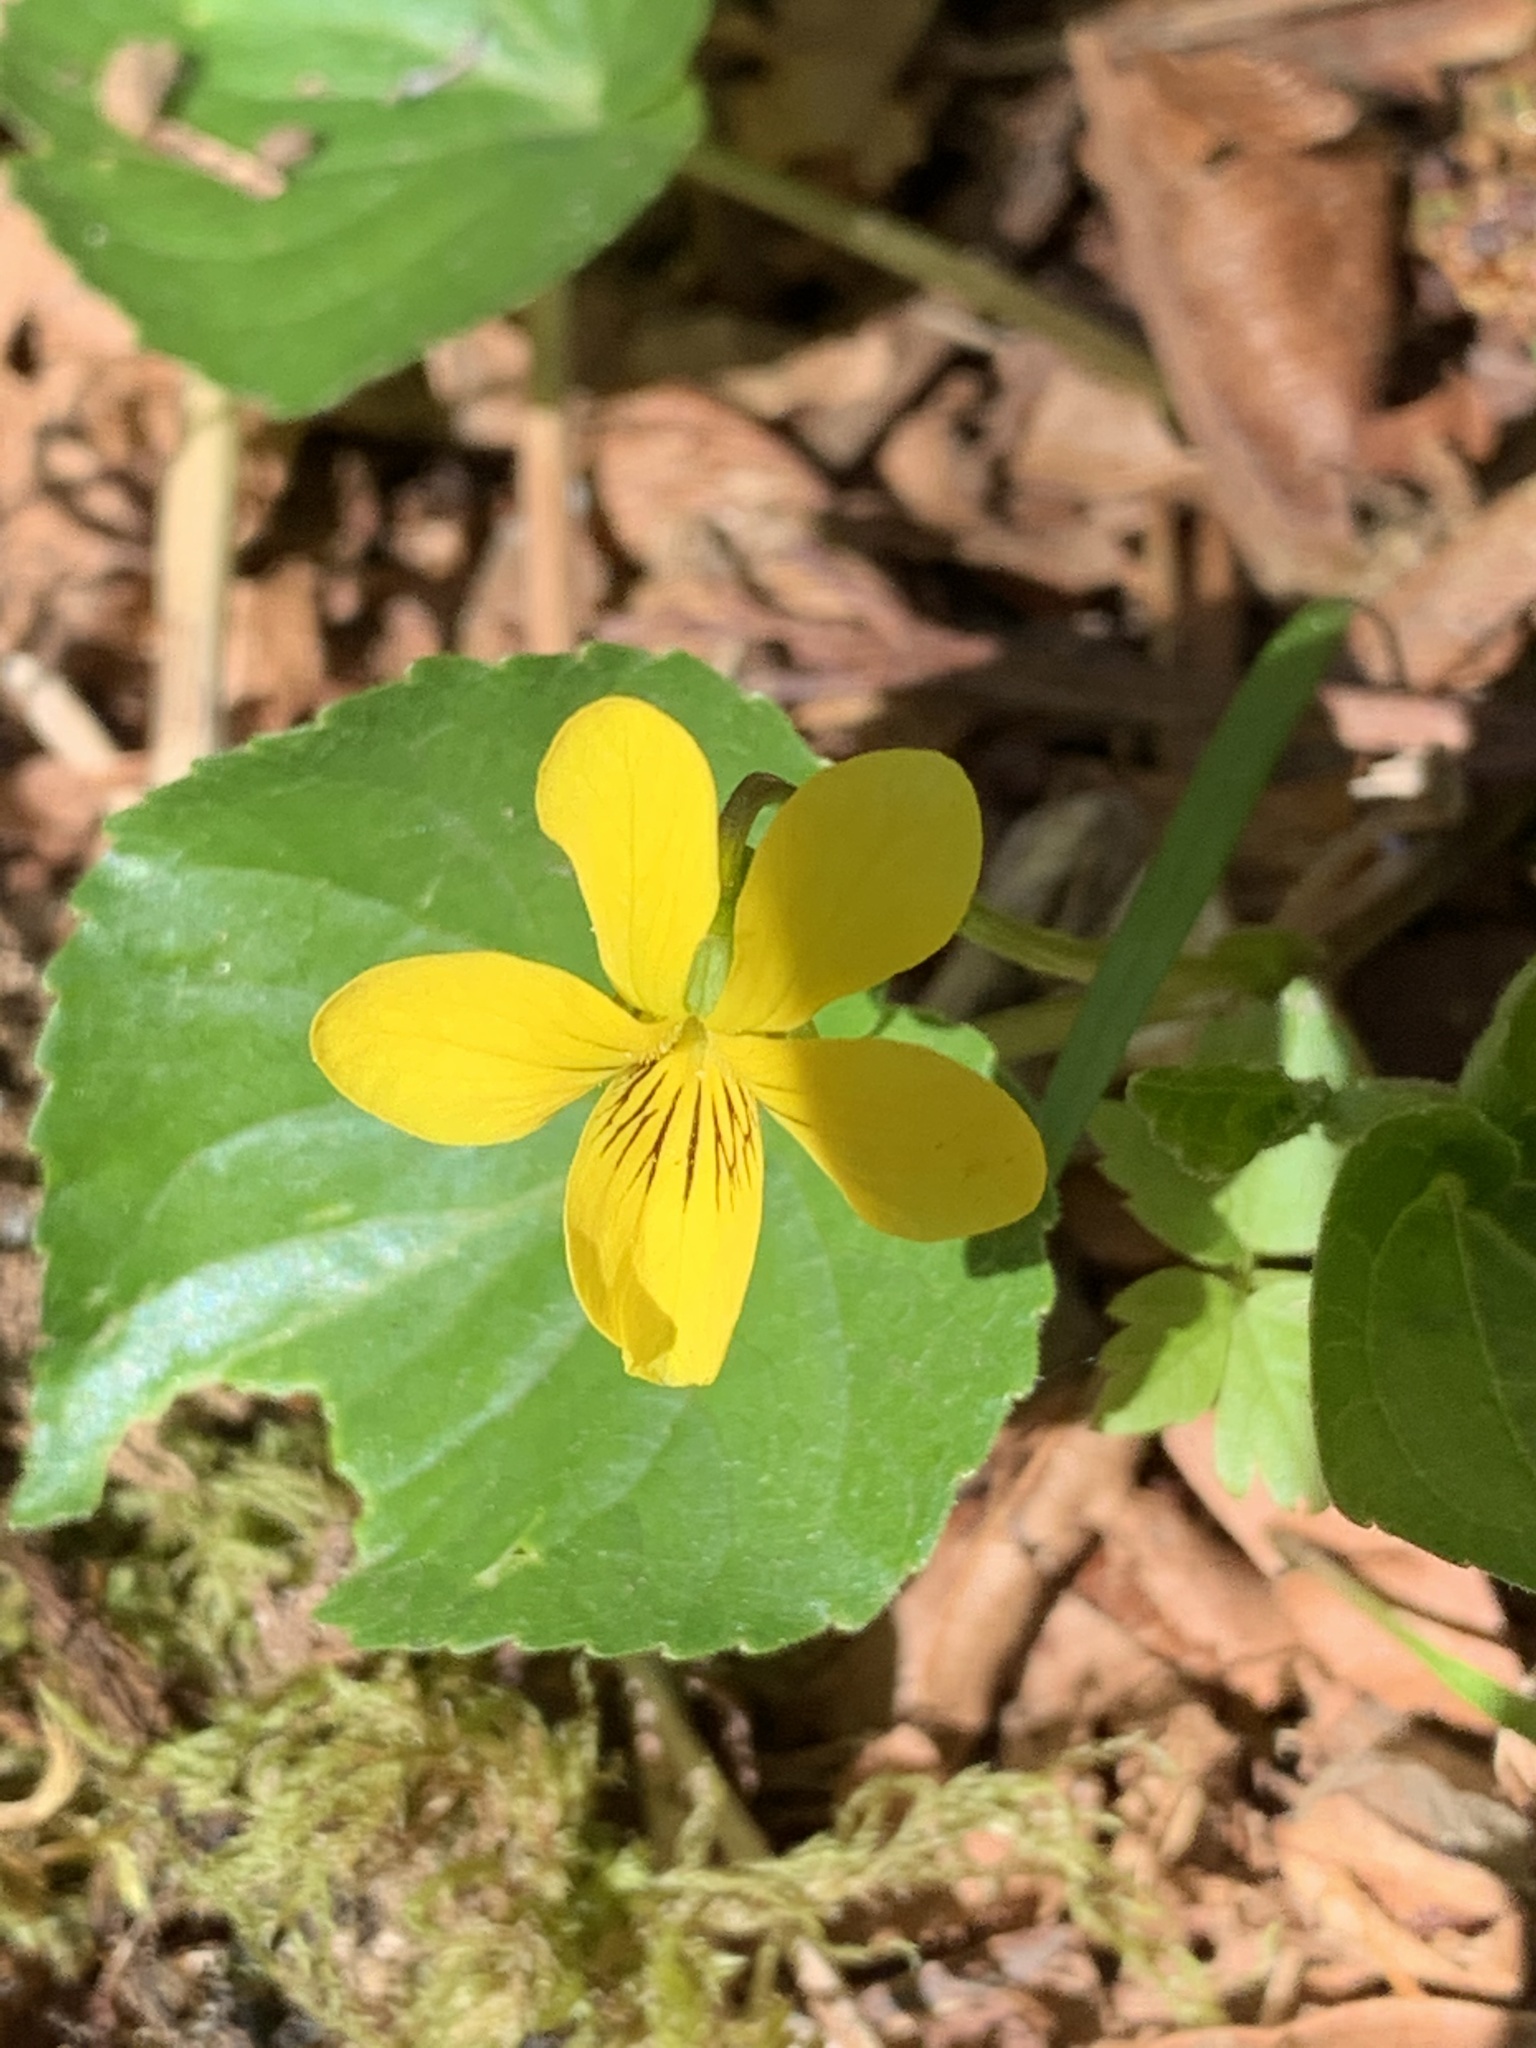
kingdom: Plantae
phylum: Tracheophyta
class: Magnoliopsida
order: Malpighiales
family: Violaceae
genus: Viola
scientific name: Viola glabella
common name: Stream violet
